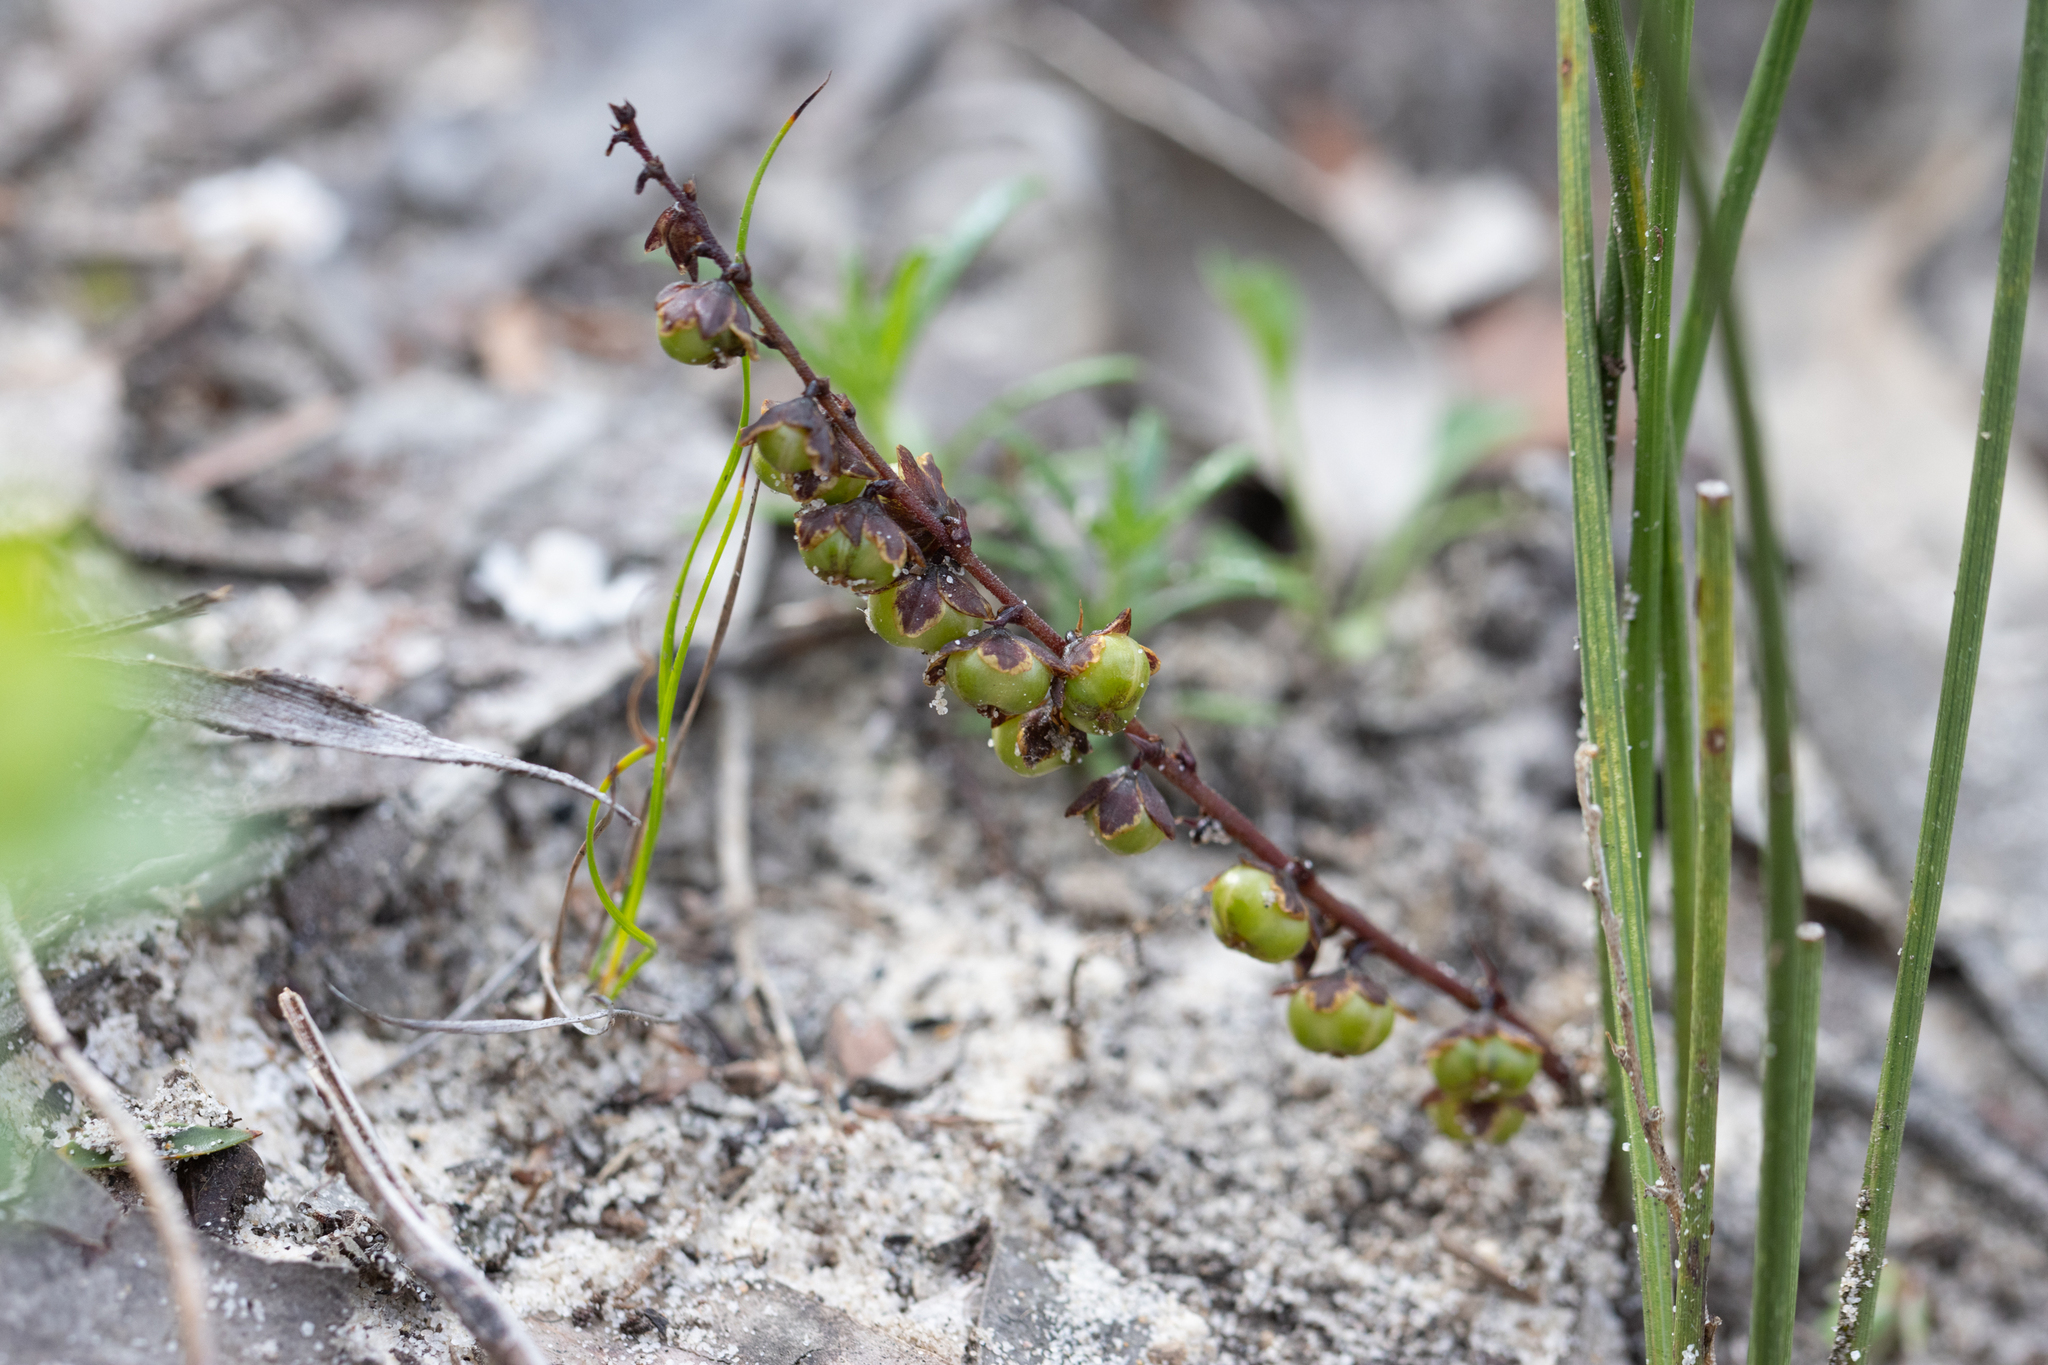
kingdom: Plantae
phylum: Tracheophyta
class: Liliopsida
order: Asparagales
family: Asparagaceae
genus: Lomandra
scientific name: Lomandra micrantha
